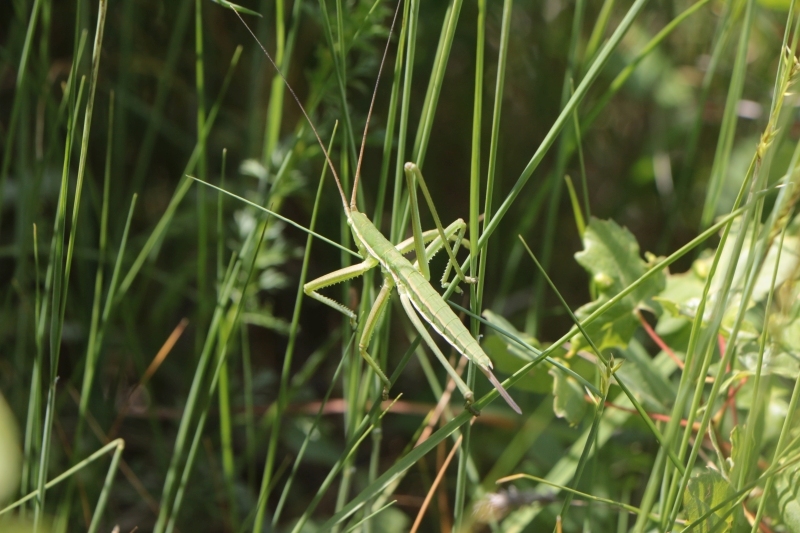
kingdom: Animalia
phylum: Arthropoda
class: Insecta
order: Orthoptera
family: Tettigoniidae
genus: Saga
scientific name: Saga gracilis
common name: Slender predatory bush-cricket
